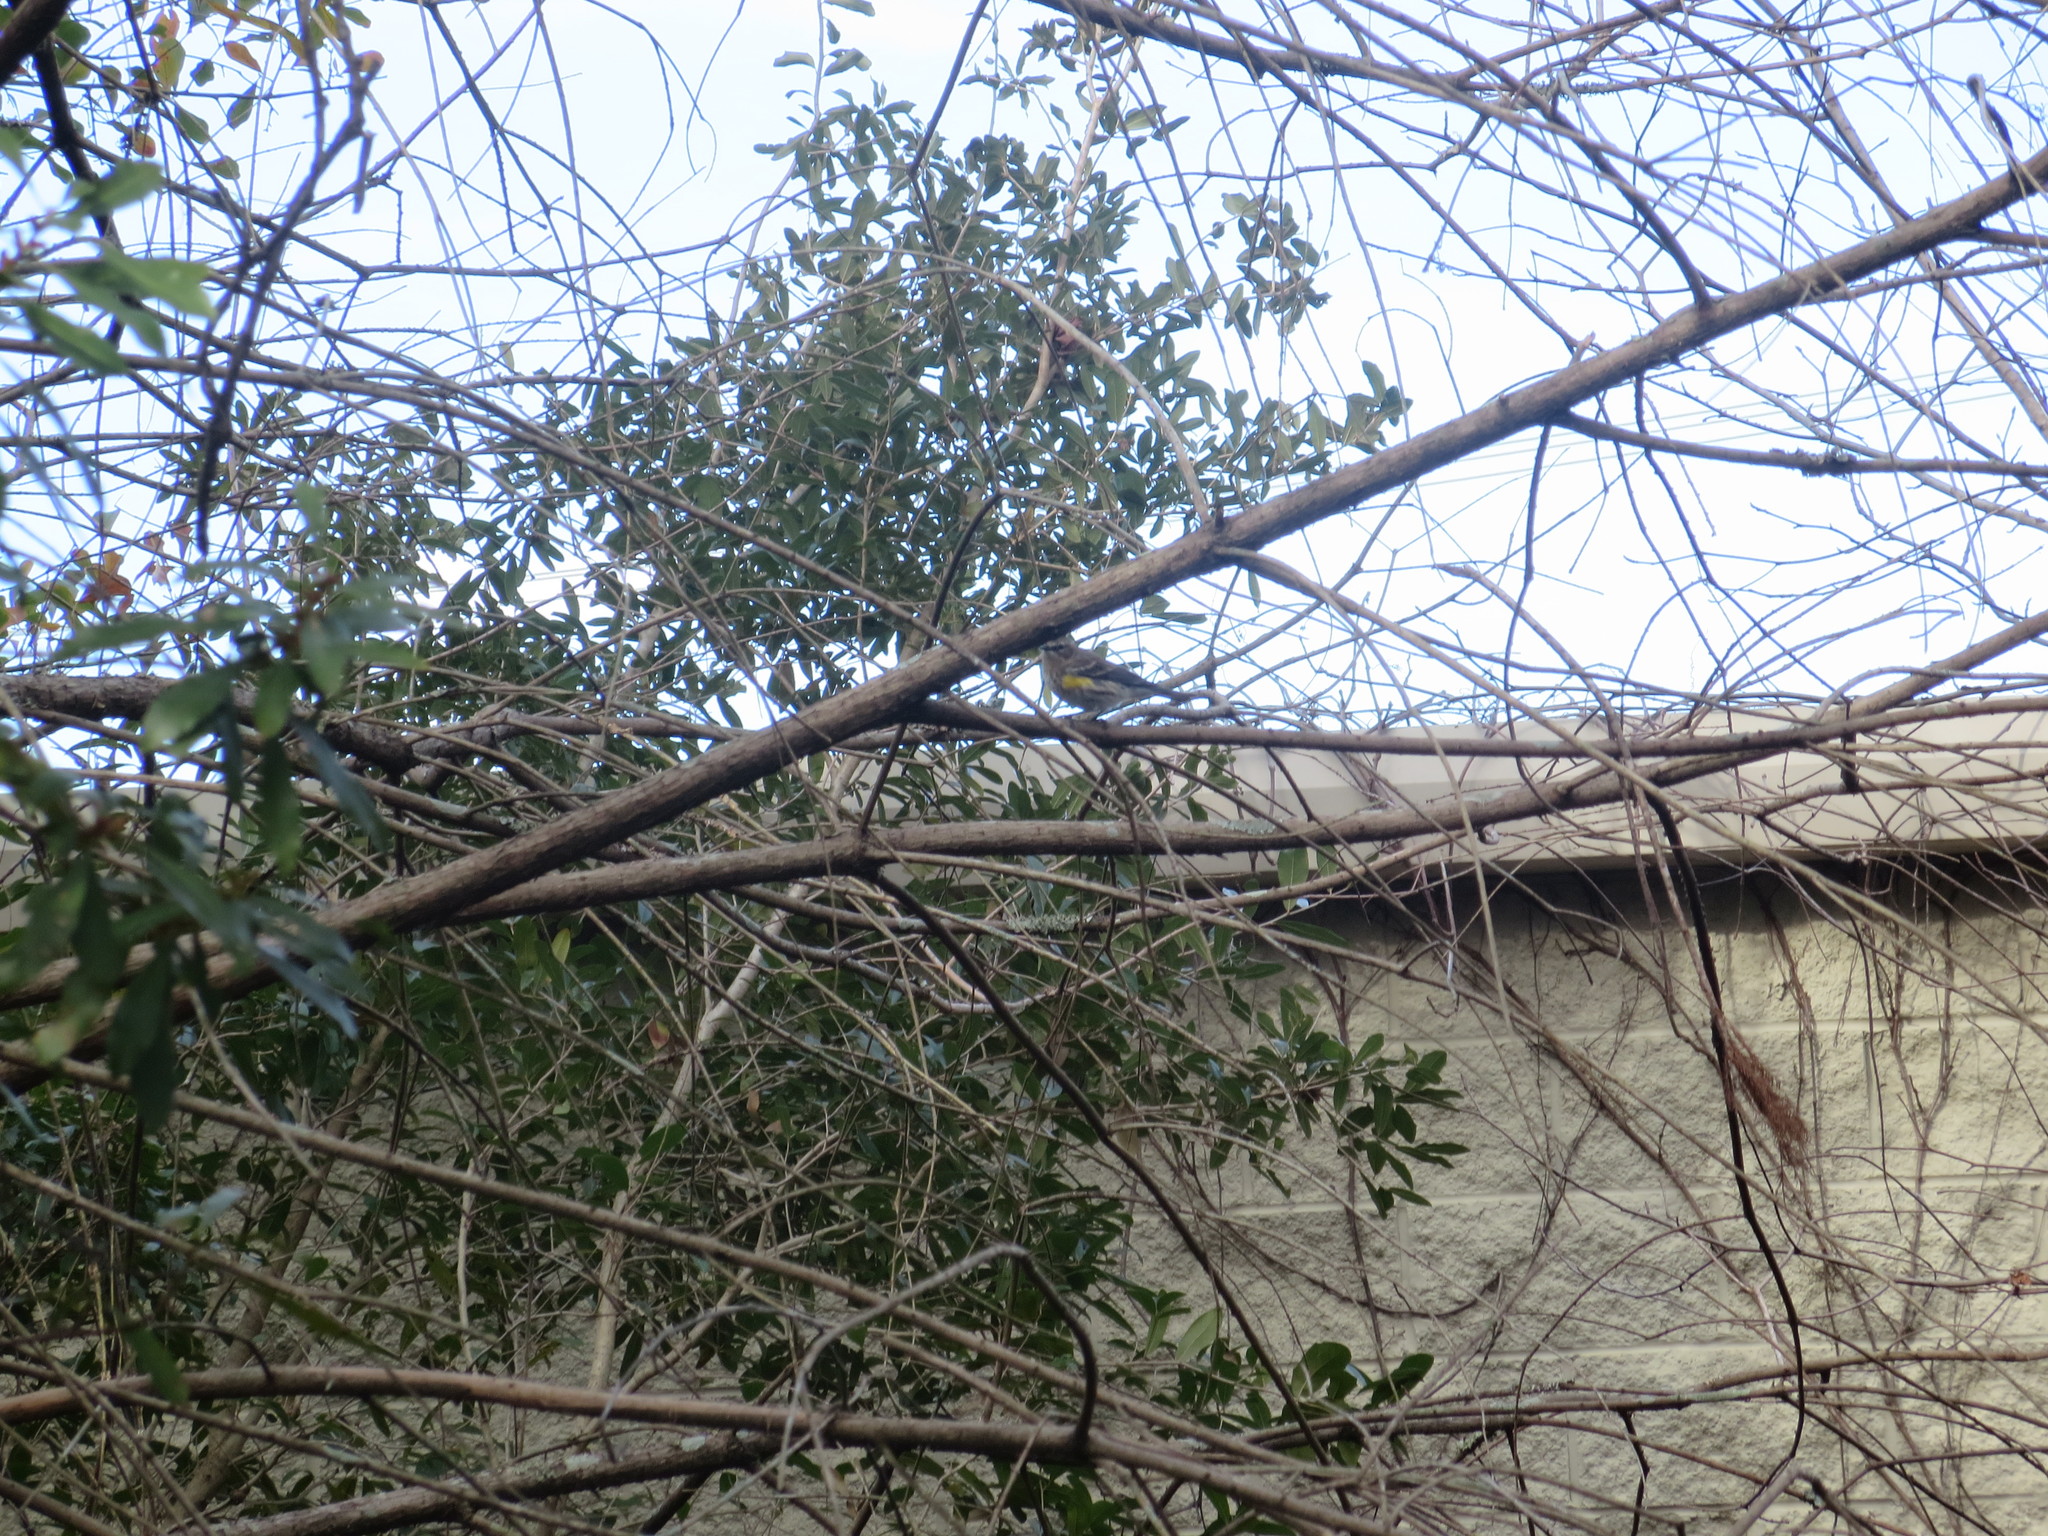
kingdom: Animalia
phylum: Chordata
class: Aves
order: Passeriformes
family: Parulidae
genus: Setophaga
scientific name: Setophaga coronata
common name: Myrtle warbler
